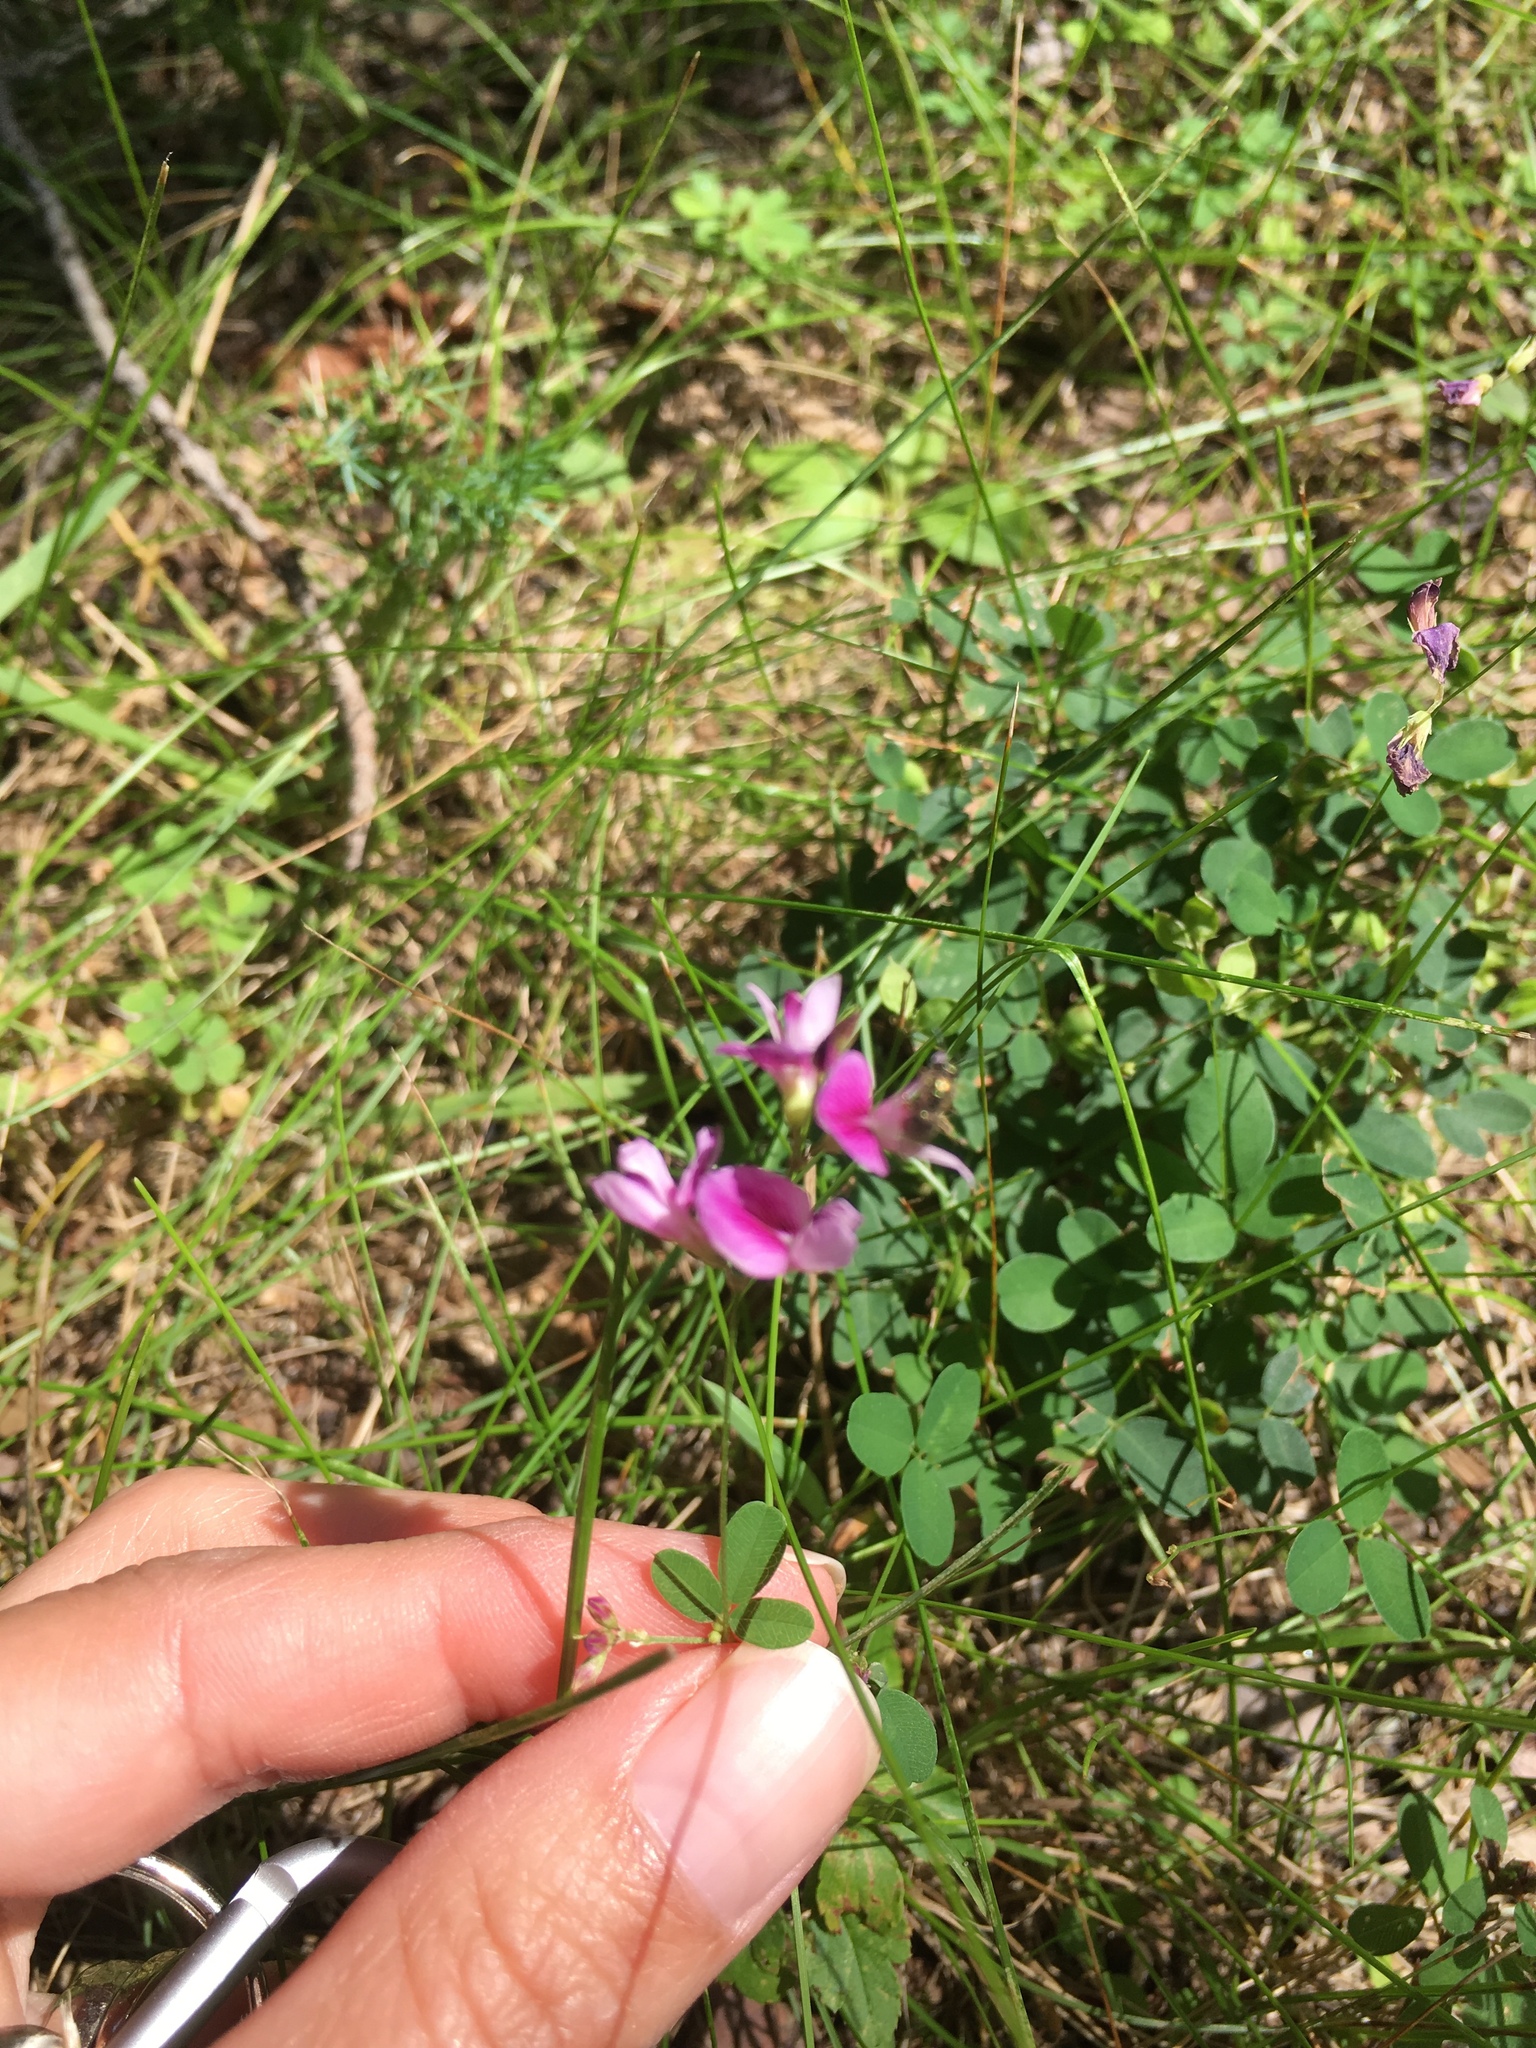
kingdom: Plantae
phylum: Tracheophyta
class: Magnoliopsida
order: Fabales
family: Fabaceae
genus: Lespedeza
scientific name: Lespedeza repens
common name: Creeping bush-clover
